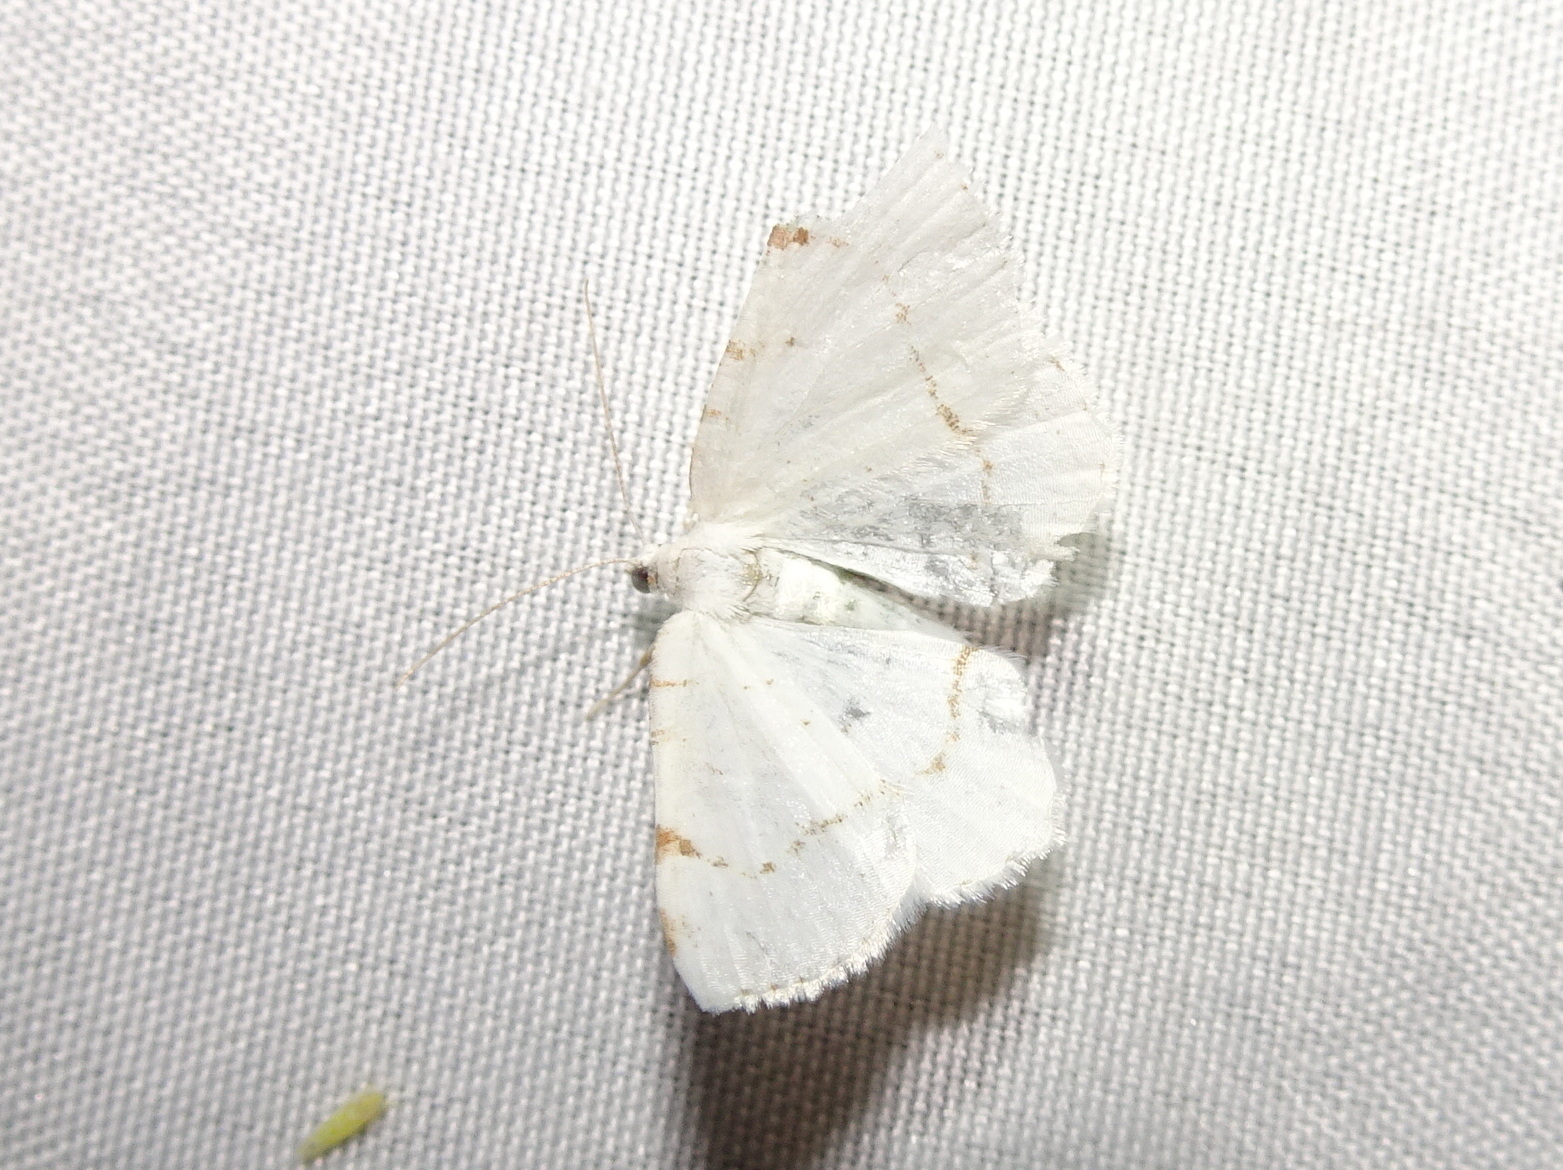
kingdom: Animalia
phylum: Arthropoda
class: Insecta
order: Lepidoptera
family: Geometridae
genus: Macaria
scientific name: Macaria pustularia
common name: Lesser maple spanworm moth
